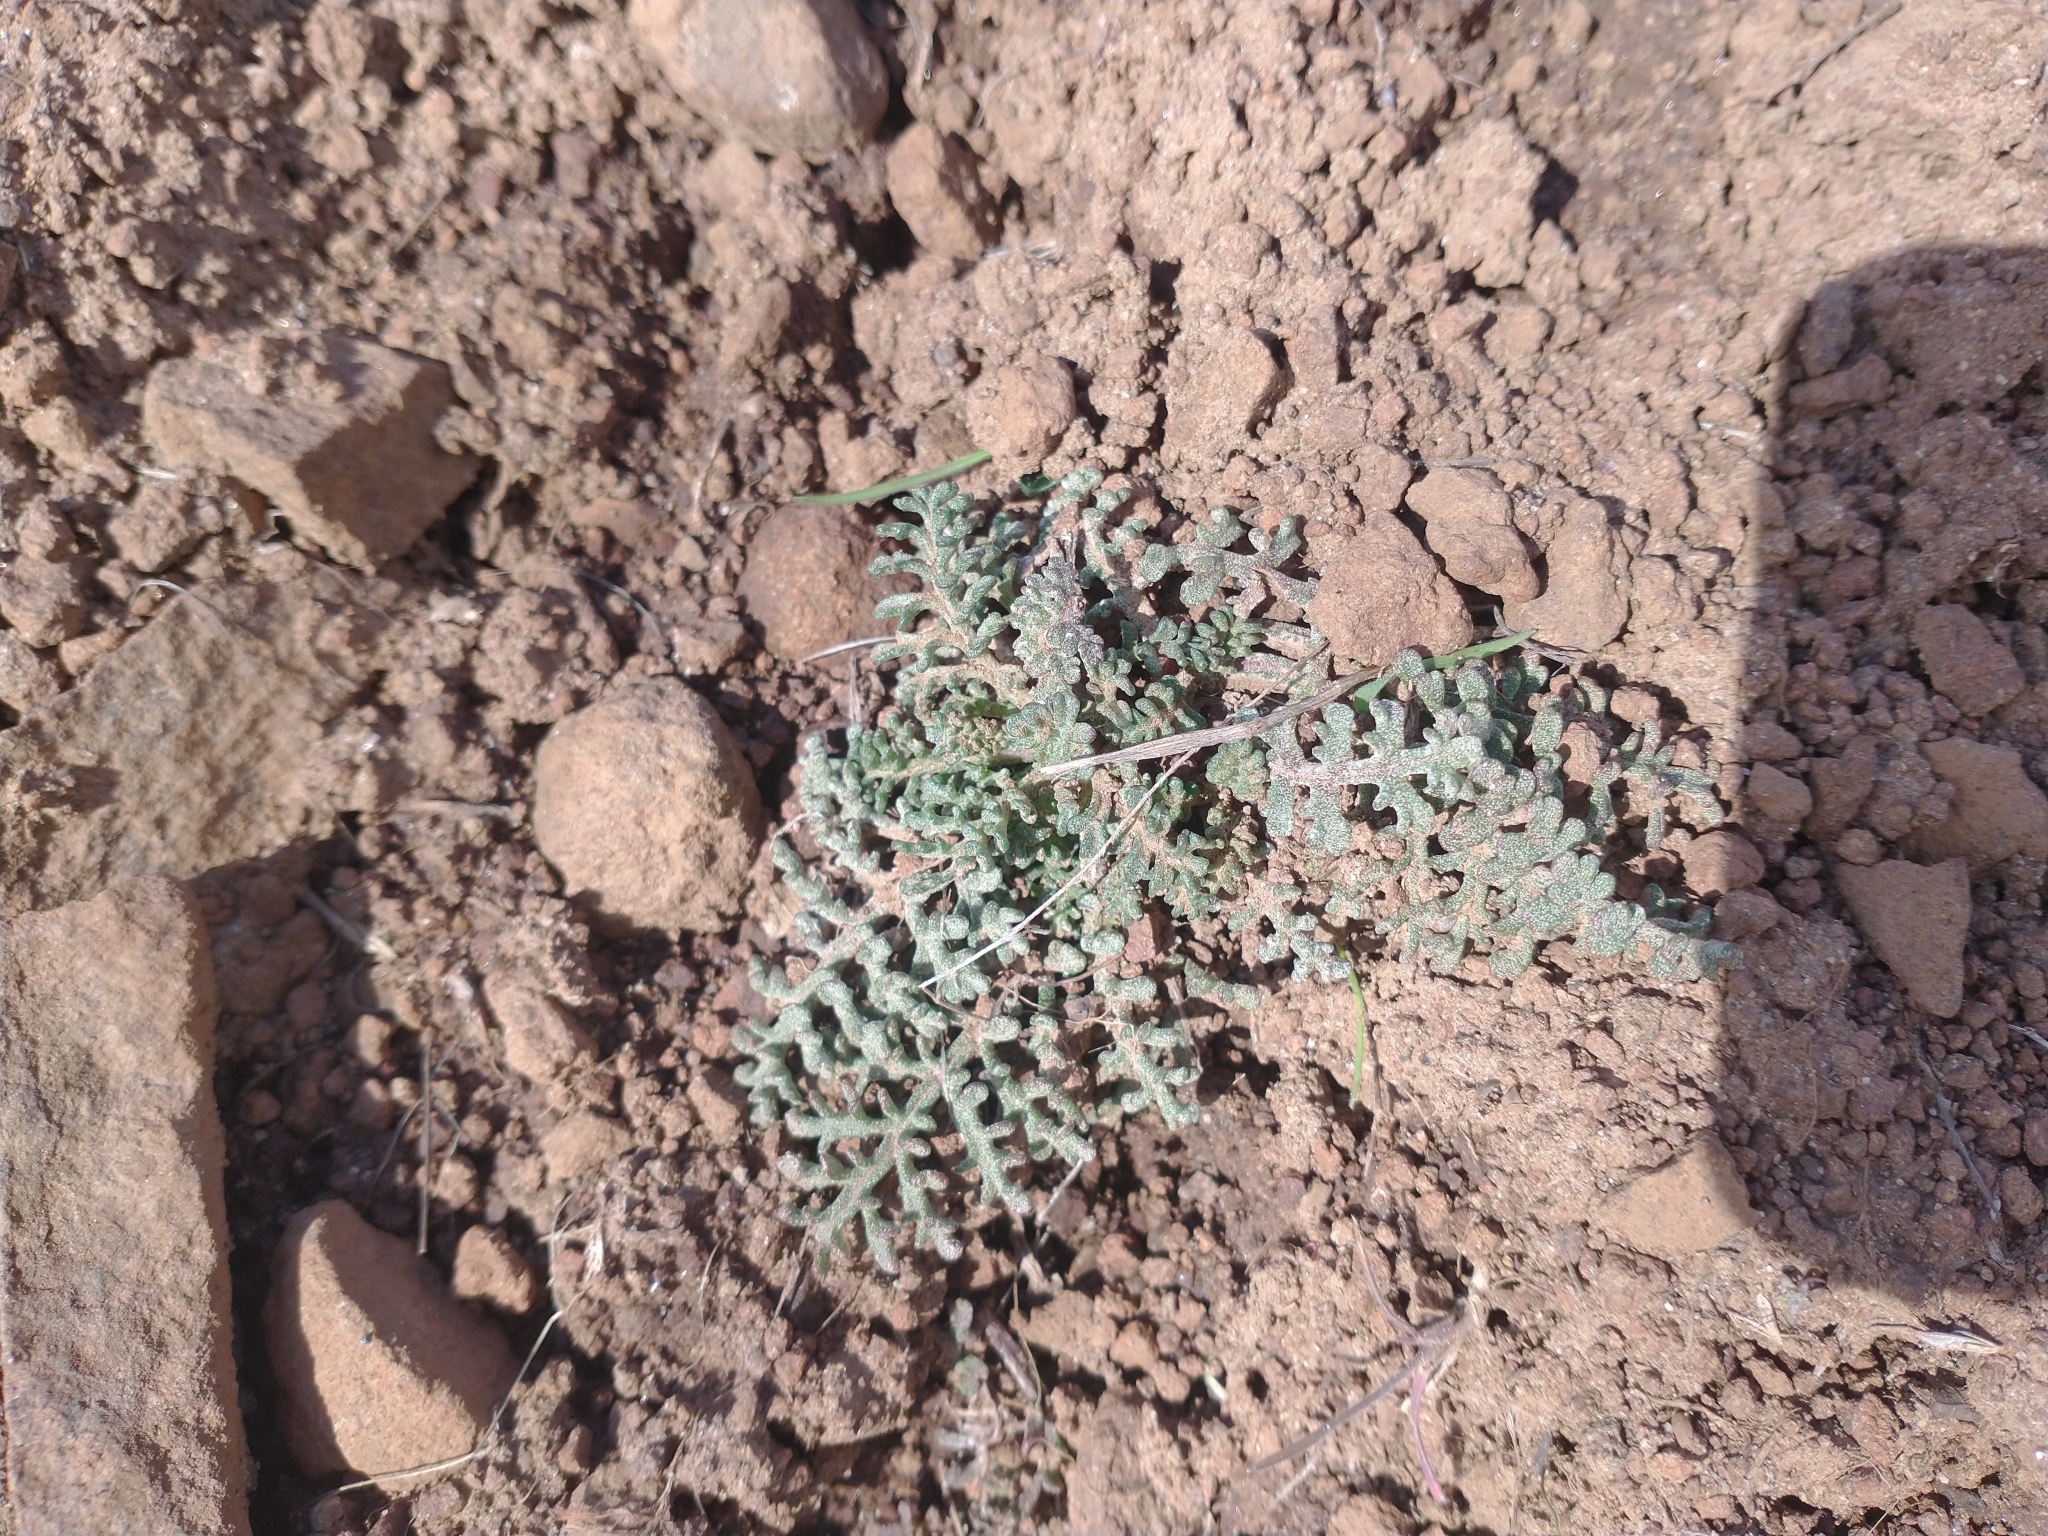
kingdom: Plantae
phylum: Tracheophyta
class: Magnoliopsida
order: Asterales
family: Asteraceae
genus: Chaenactis
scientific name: Chaenactis douglasii
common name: Hoary pincushion
